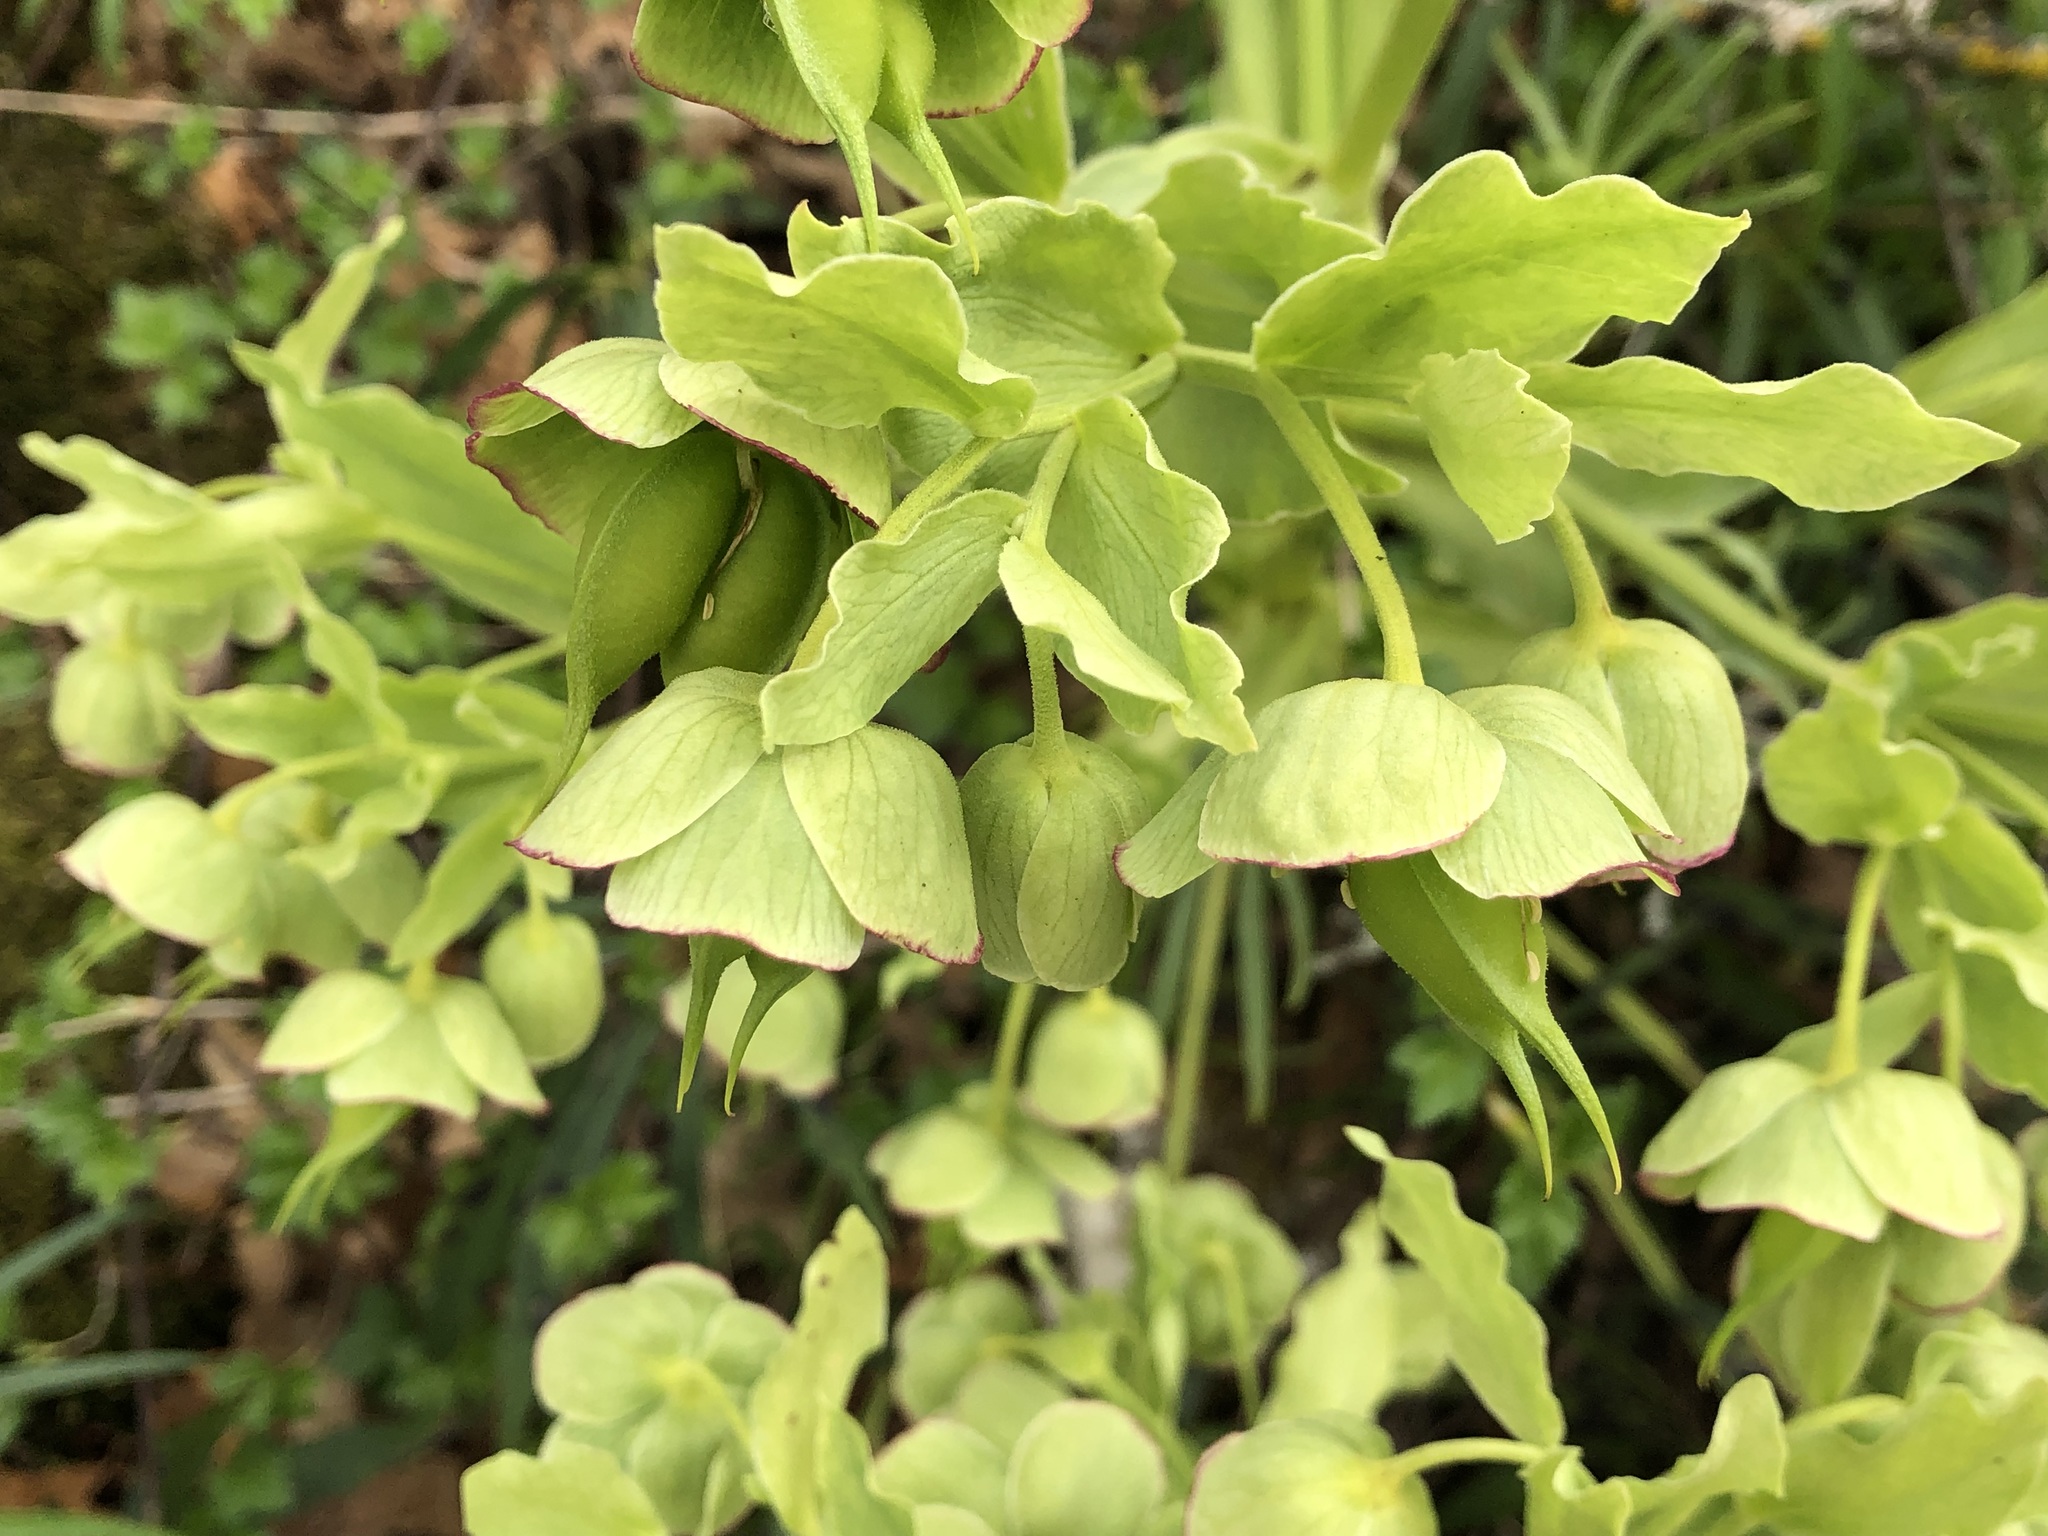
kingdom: Plantae
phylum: Tracheophyta
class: Magnoliopsida
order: Ranunculales
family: Ranunculaceae
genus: Helleborus
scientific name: Helleborus foetidus
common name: Stinking hellebore
